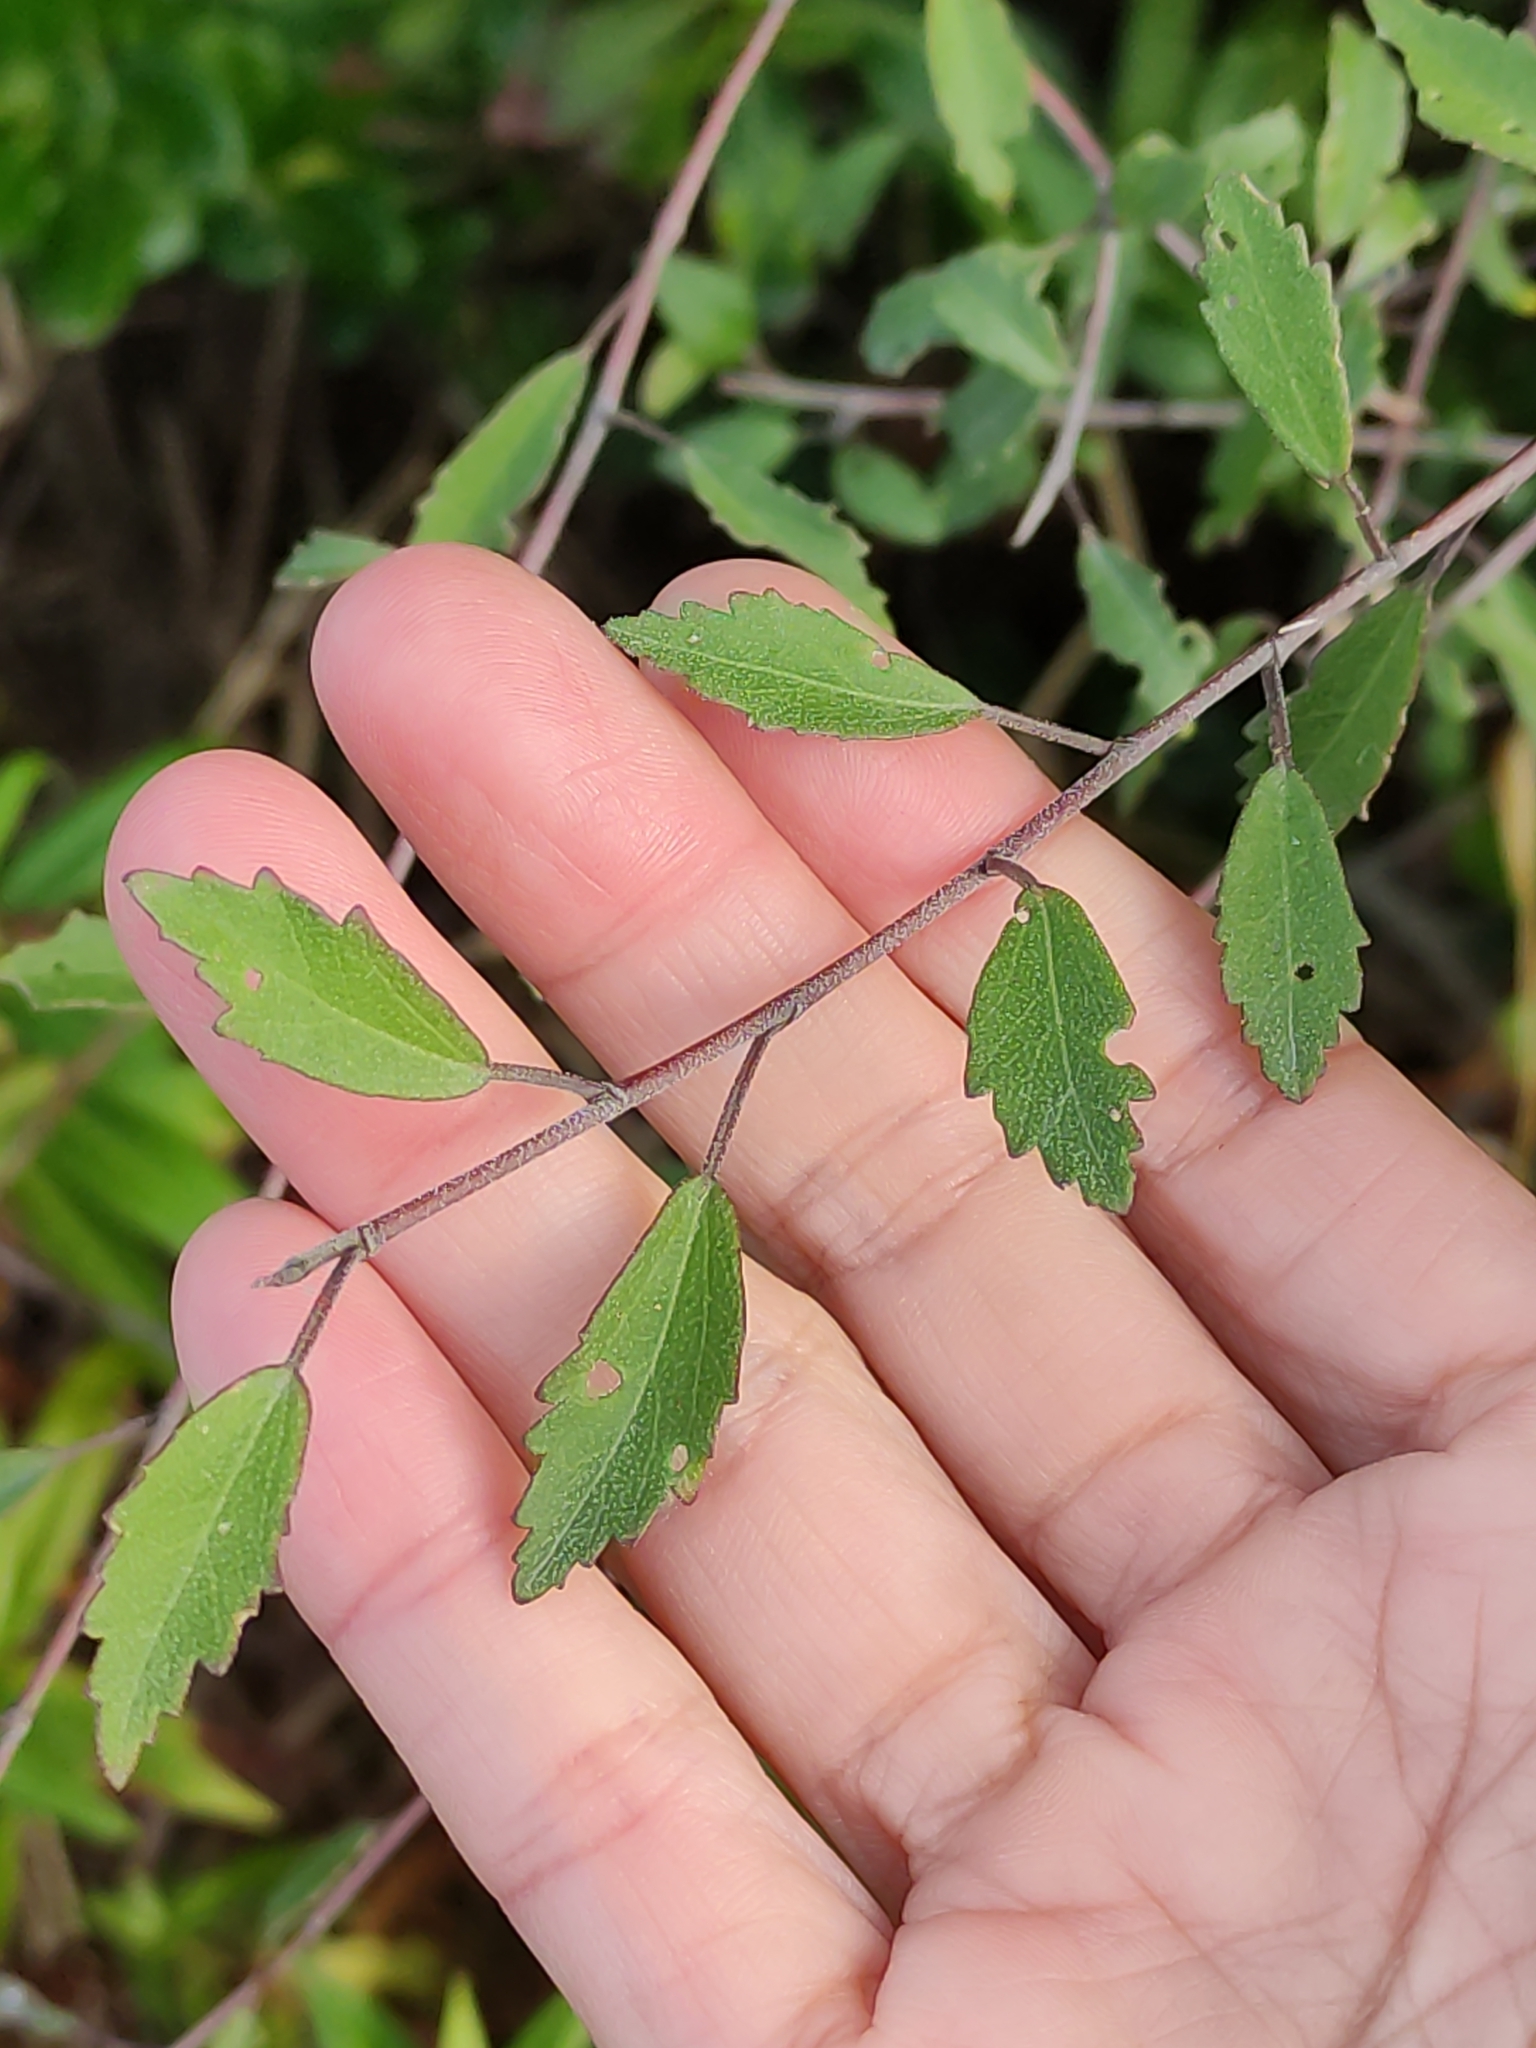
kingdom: Plantae
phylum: Tracheophyta
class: Magnoliopsida
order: Malvales
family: Malvaceae
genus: Plagianthus
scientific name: Plagianthus cymosus
